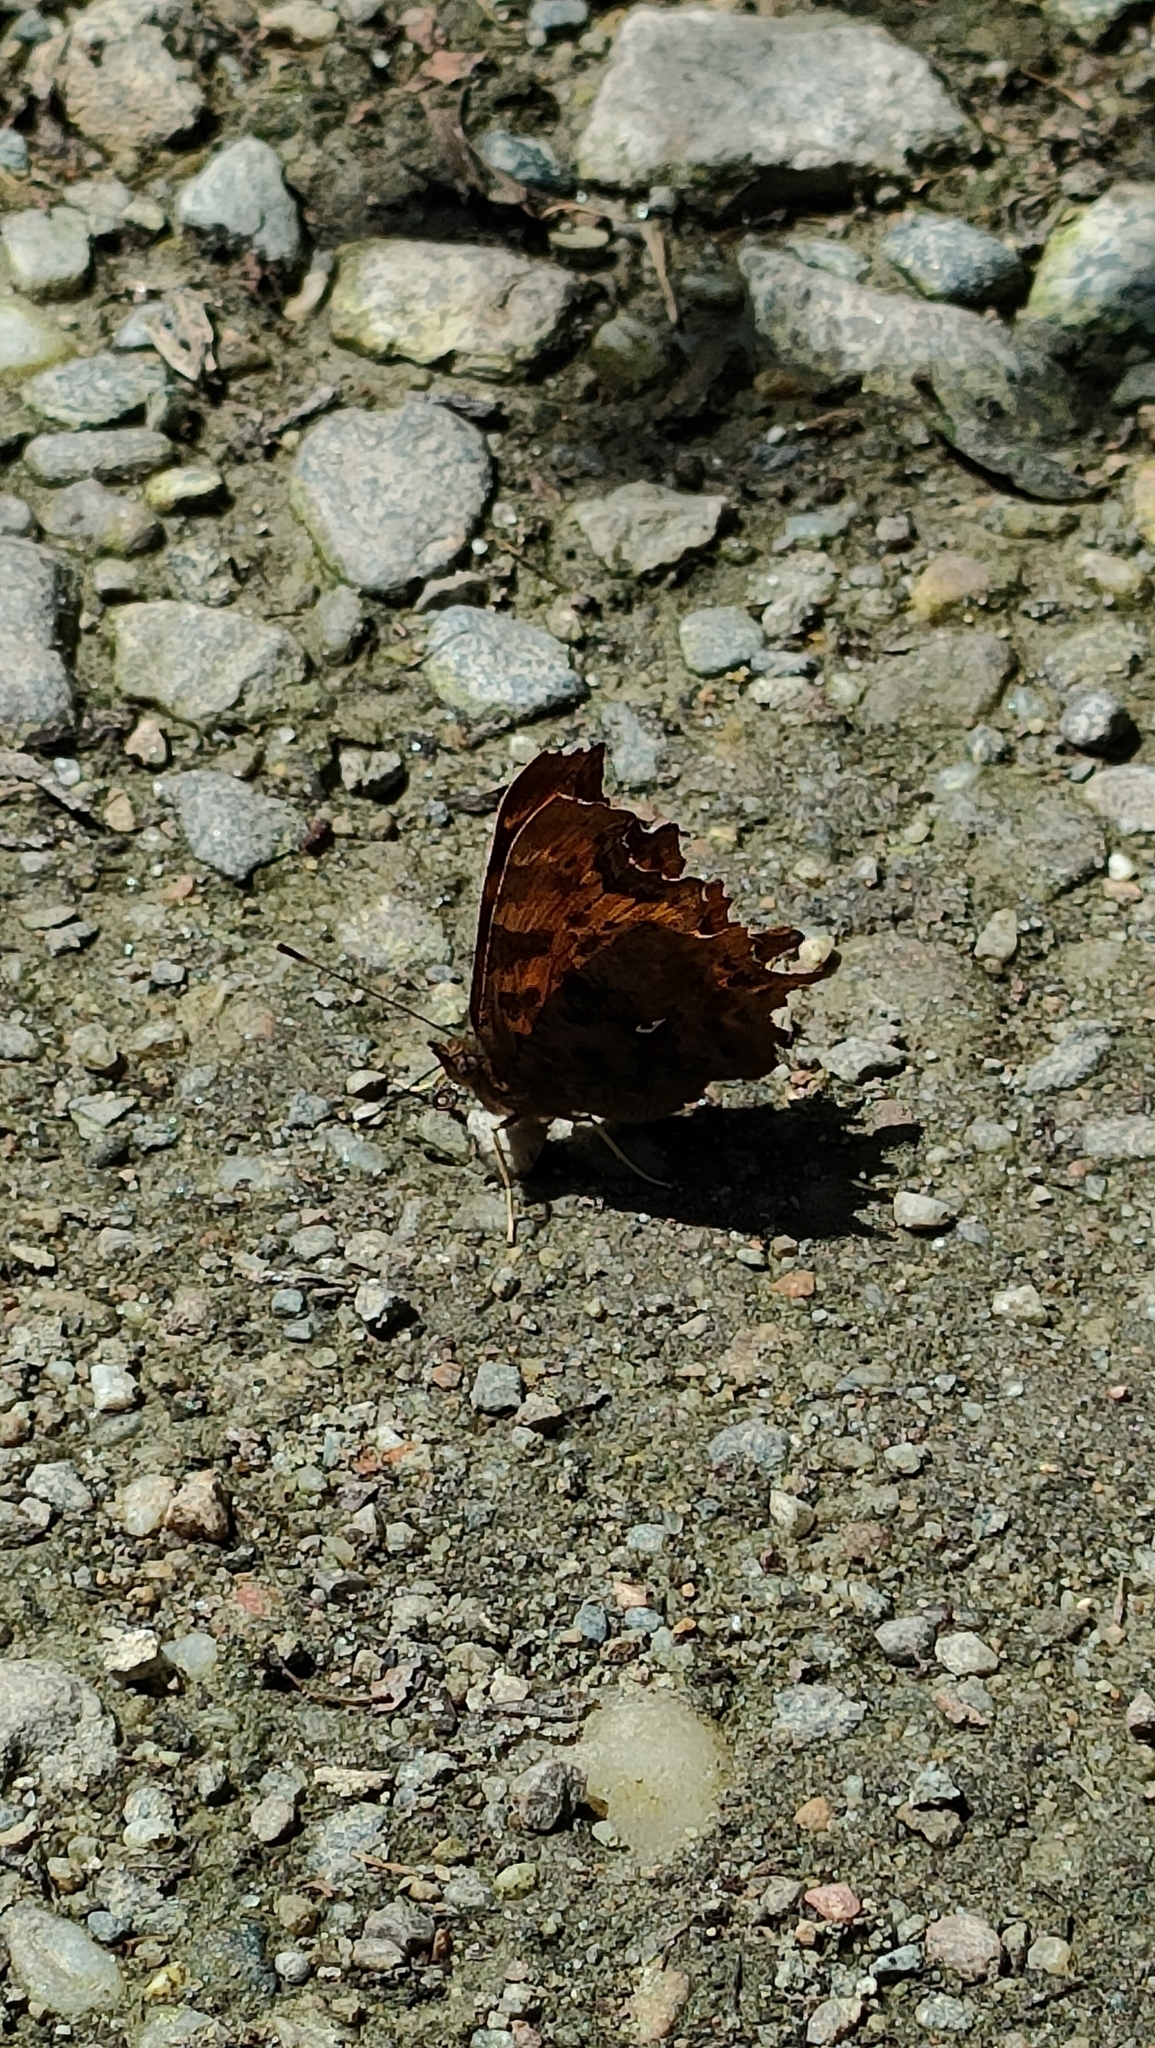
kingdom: Animalia
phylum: Arthropoda
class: Insecta
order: Lepidoptera
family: Nymphalidae
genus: Polygonia
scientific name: Polygonia c-album
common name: Comma
